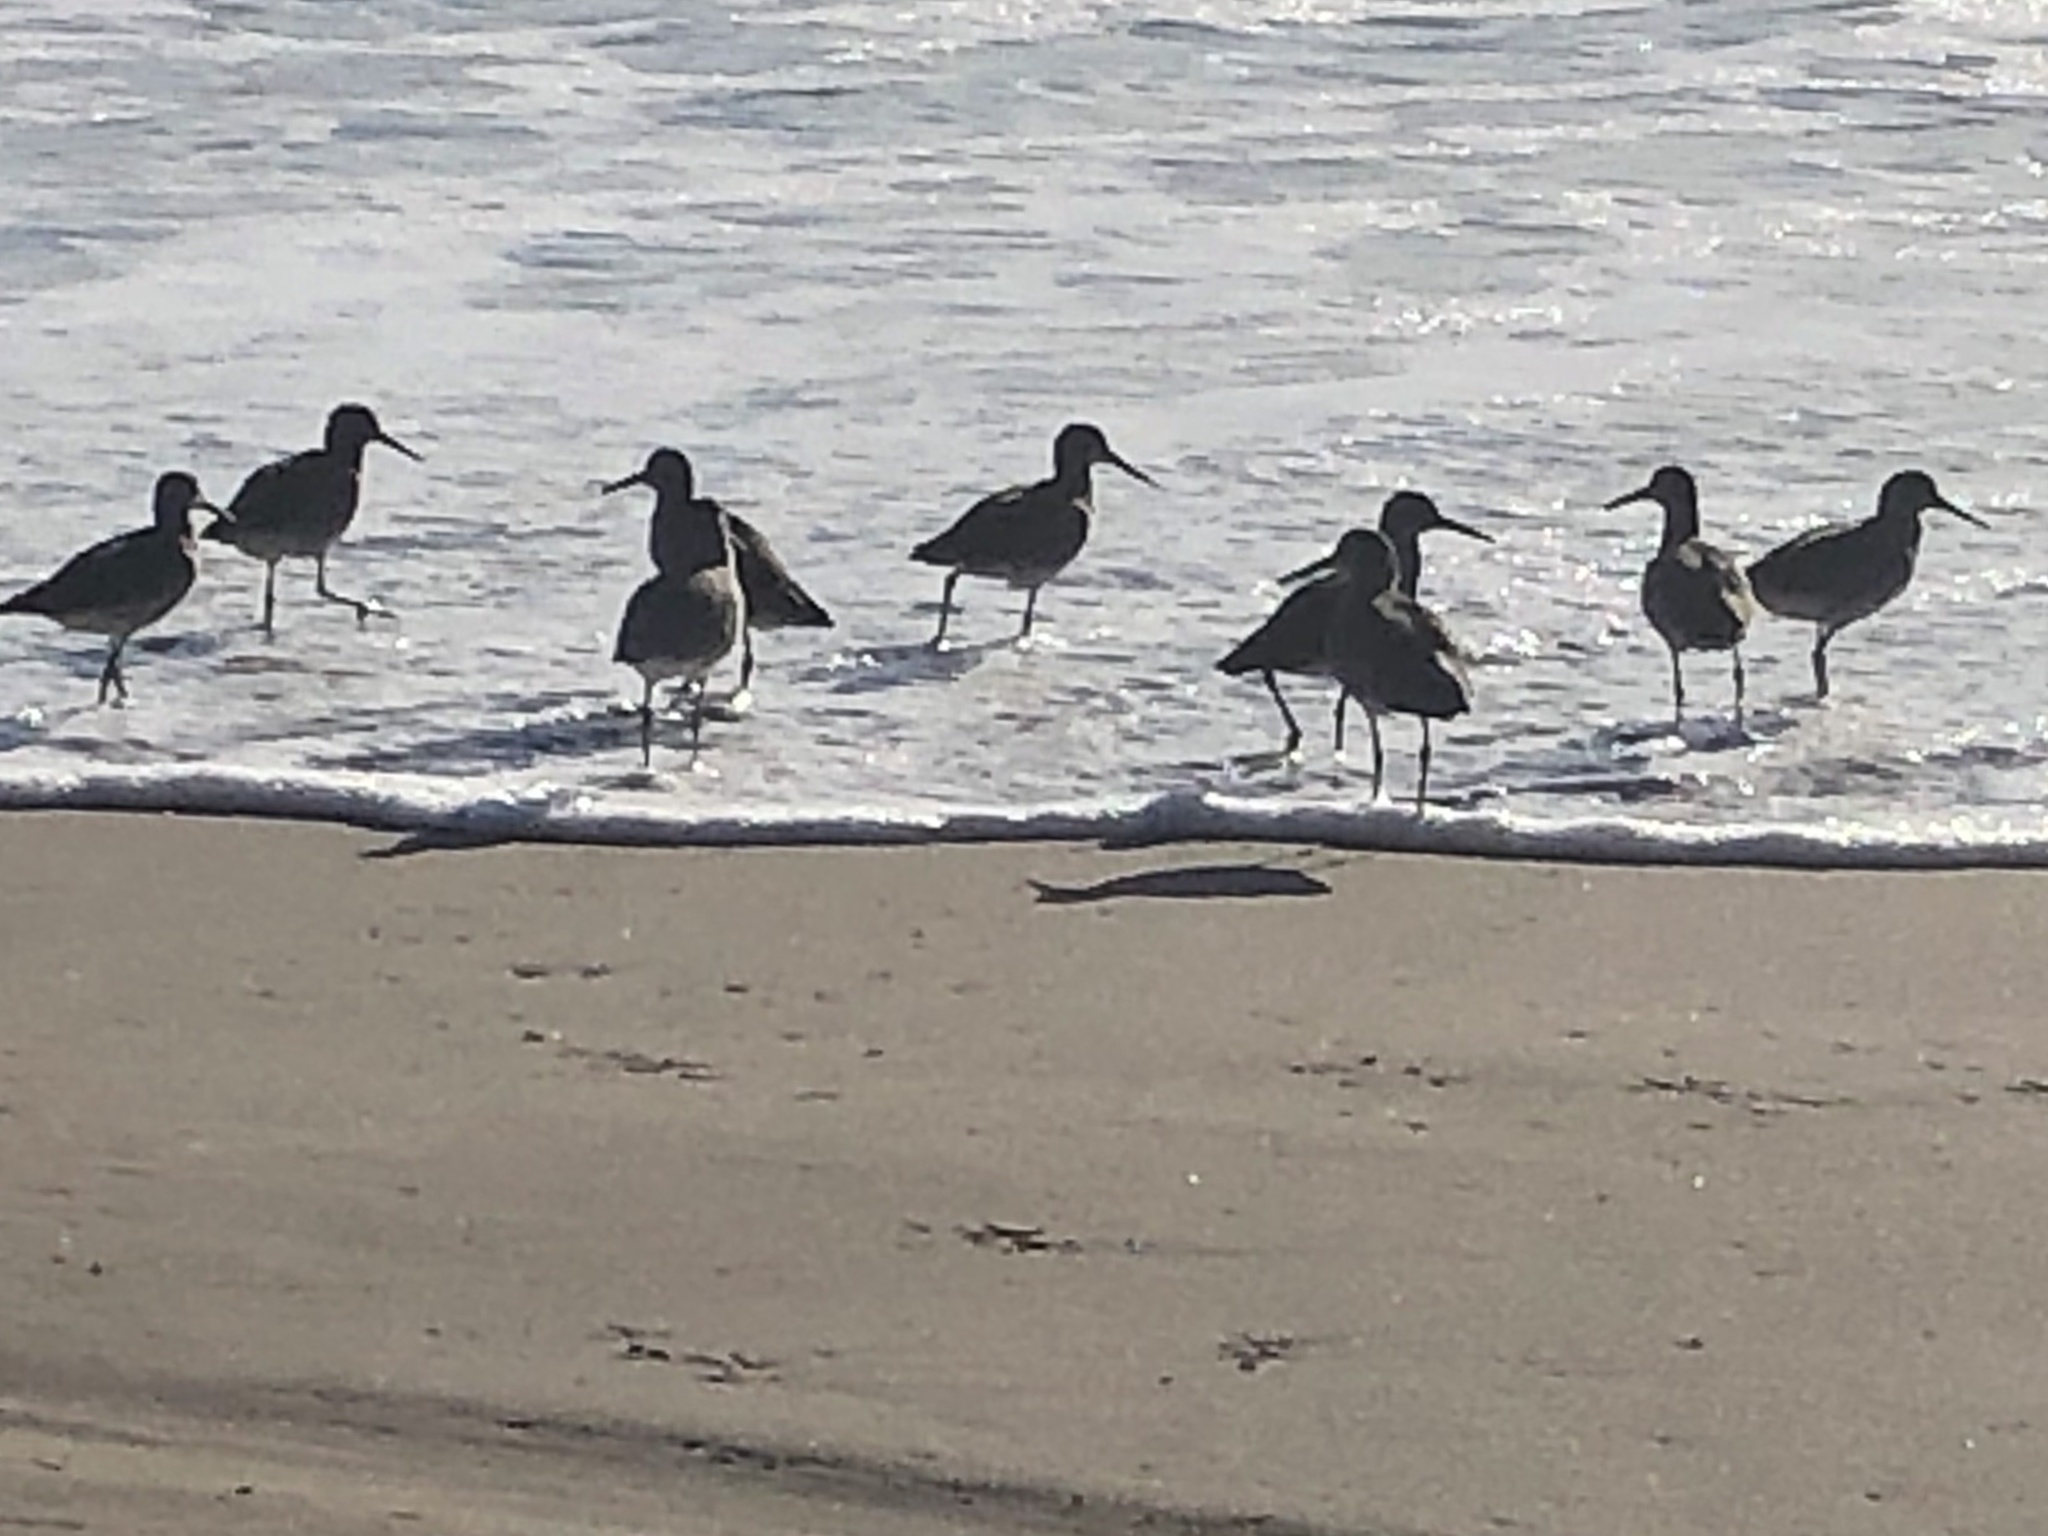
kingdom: Animalia
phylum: Chordata
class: Aves
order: Charadriiformes
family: Scolopacidae
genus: Tringa
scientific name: Tringa semipalmata
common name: Willet
